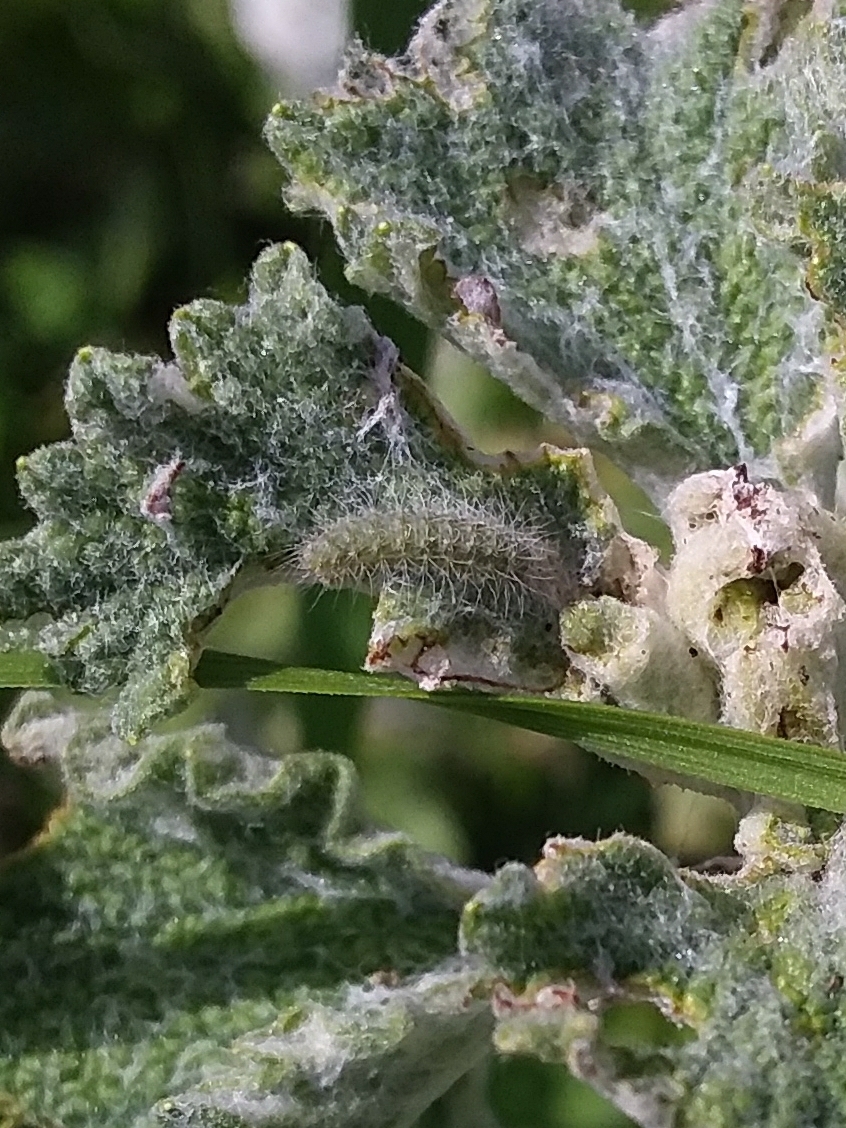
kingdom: Animalia
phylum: Arthropoda
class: Insecta
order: Lepidoptera
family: Pterophoridae
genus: Wheeleria
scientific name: Wheeleria spilodactylus
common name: Horehound plume
